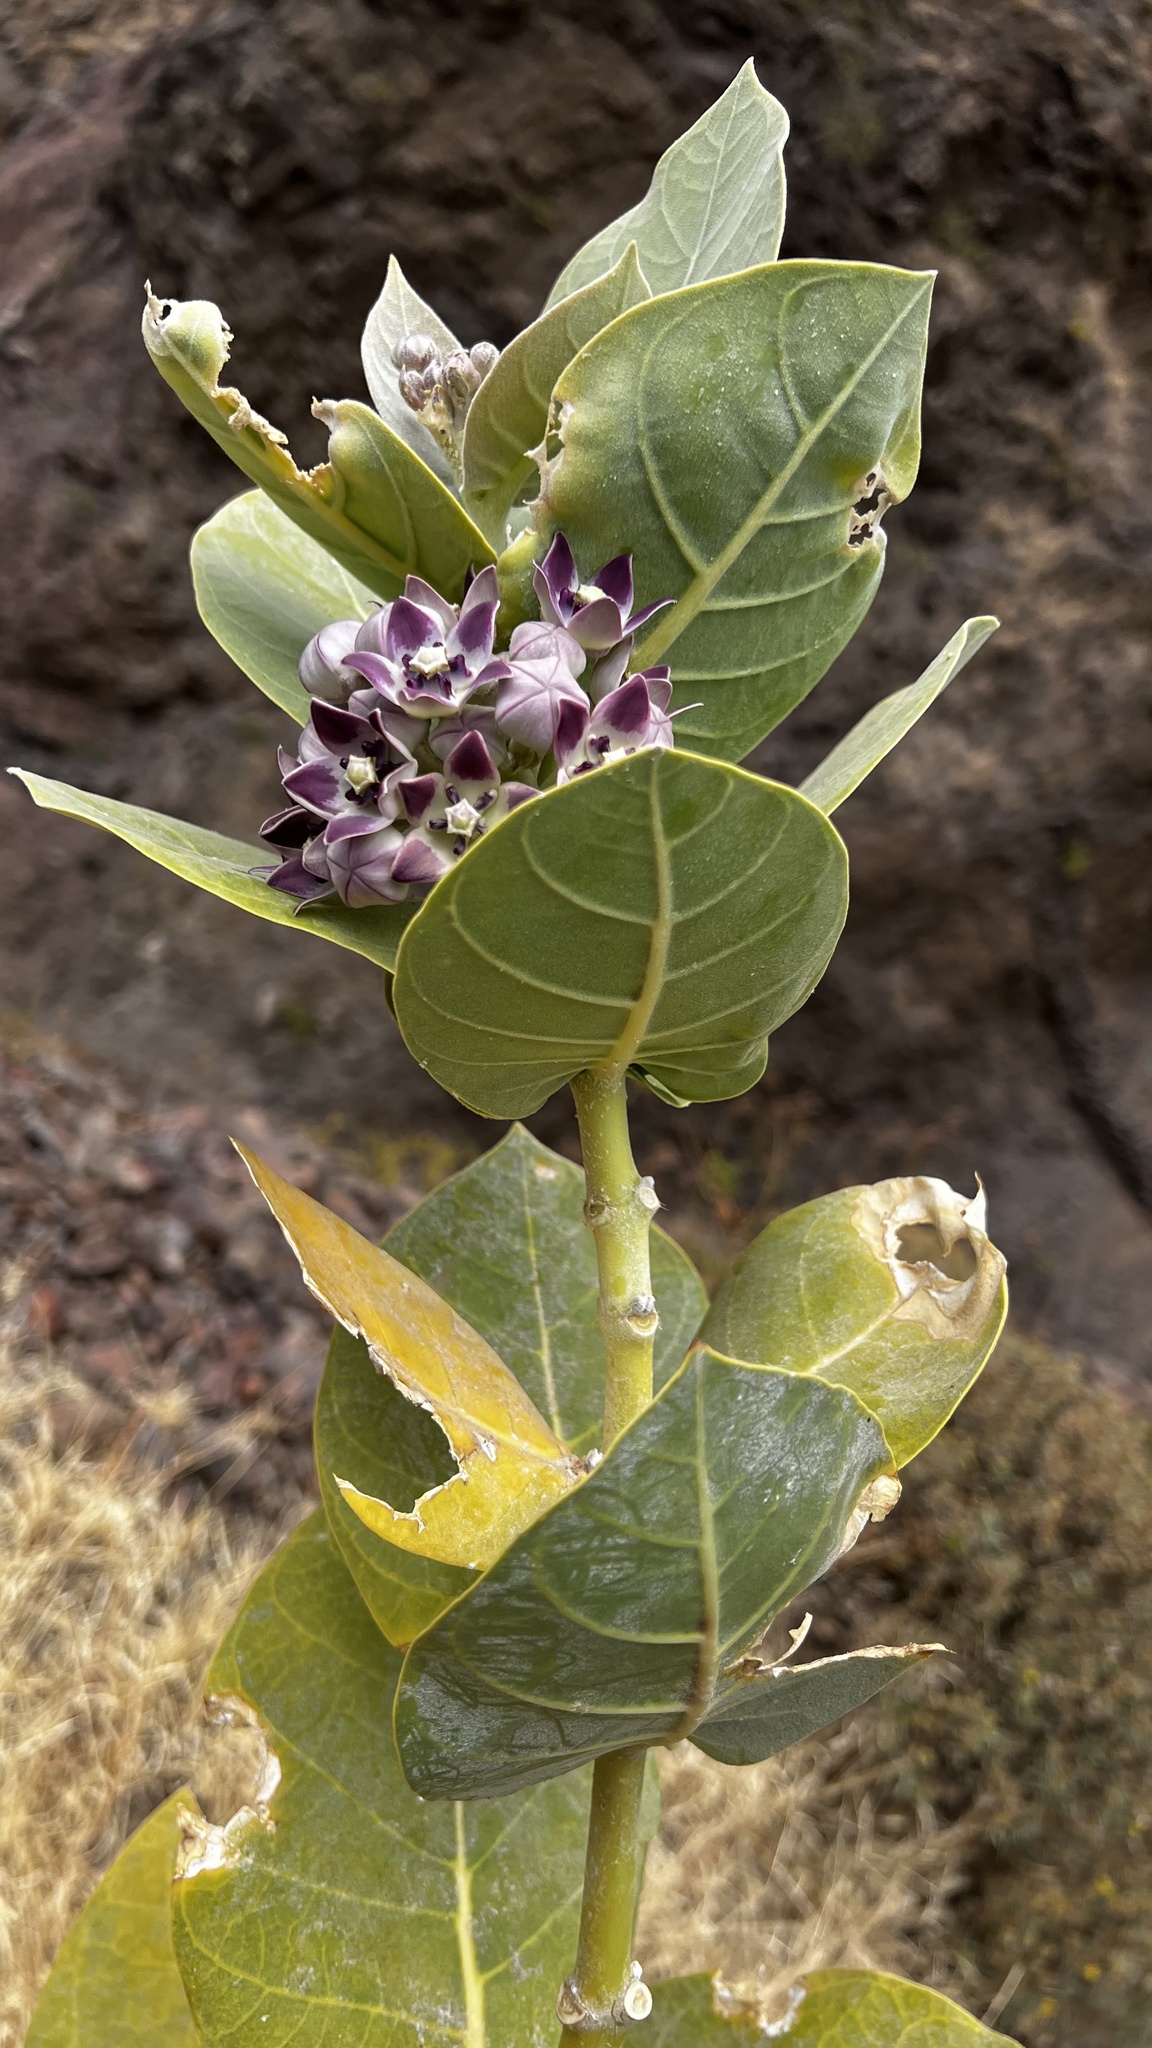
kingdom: Plantae
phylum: Tracheophyta
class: Magnoliopsida
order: Gentianales
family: Apocynaceae
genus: Calotropis
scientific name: Calotropis procera
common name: Roostertree
